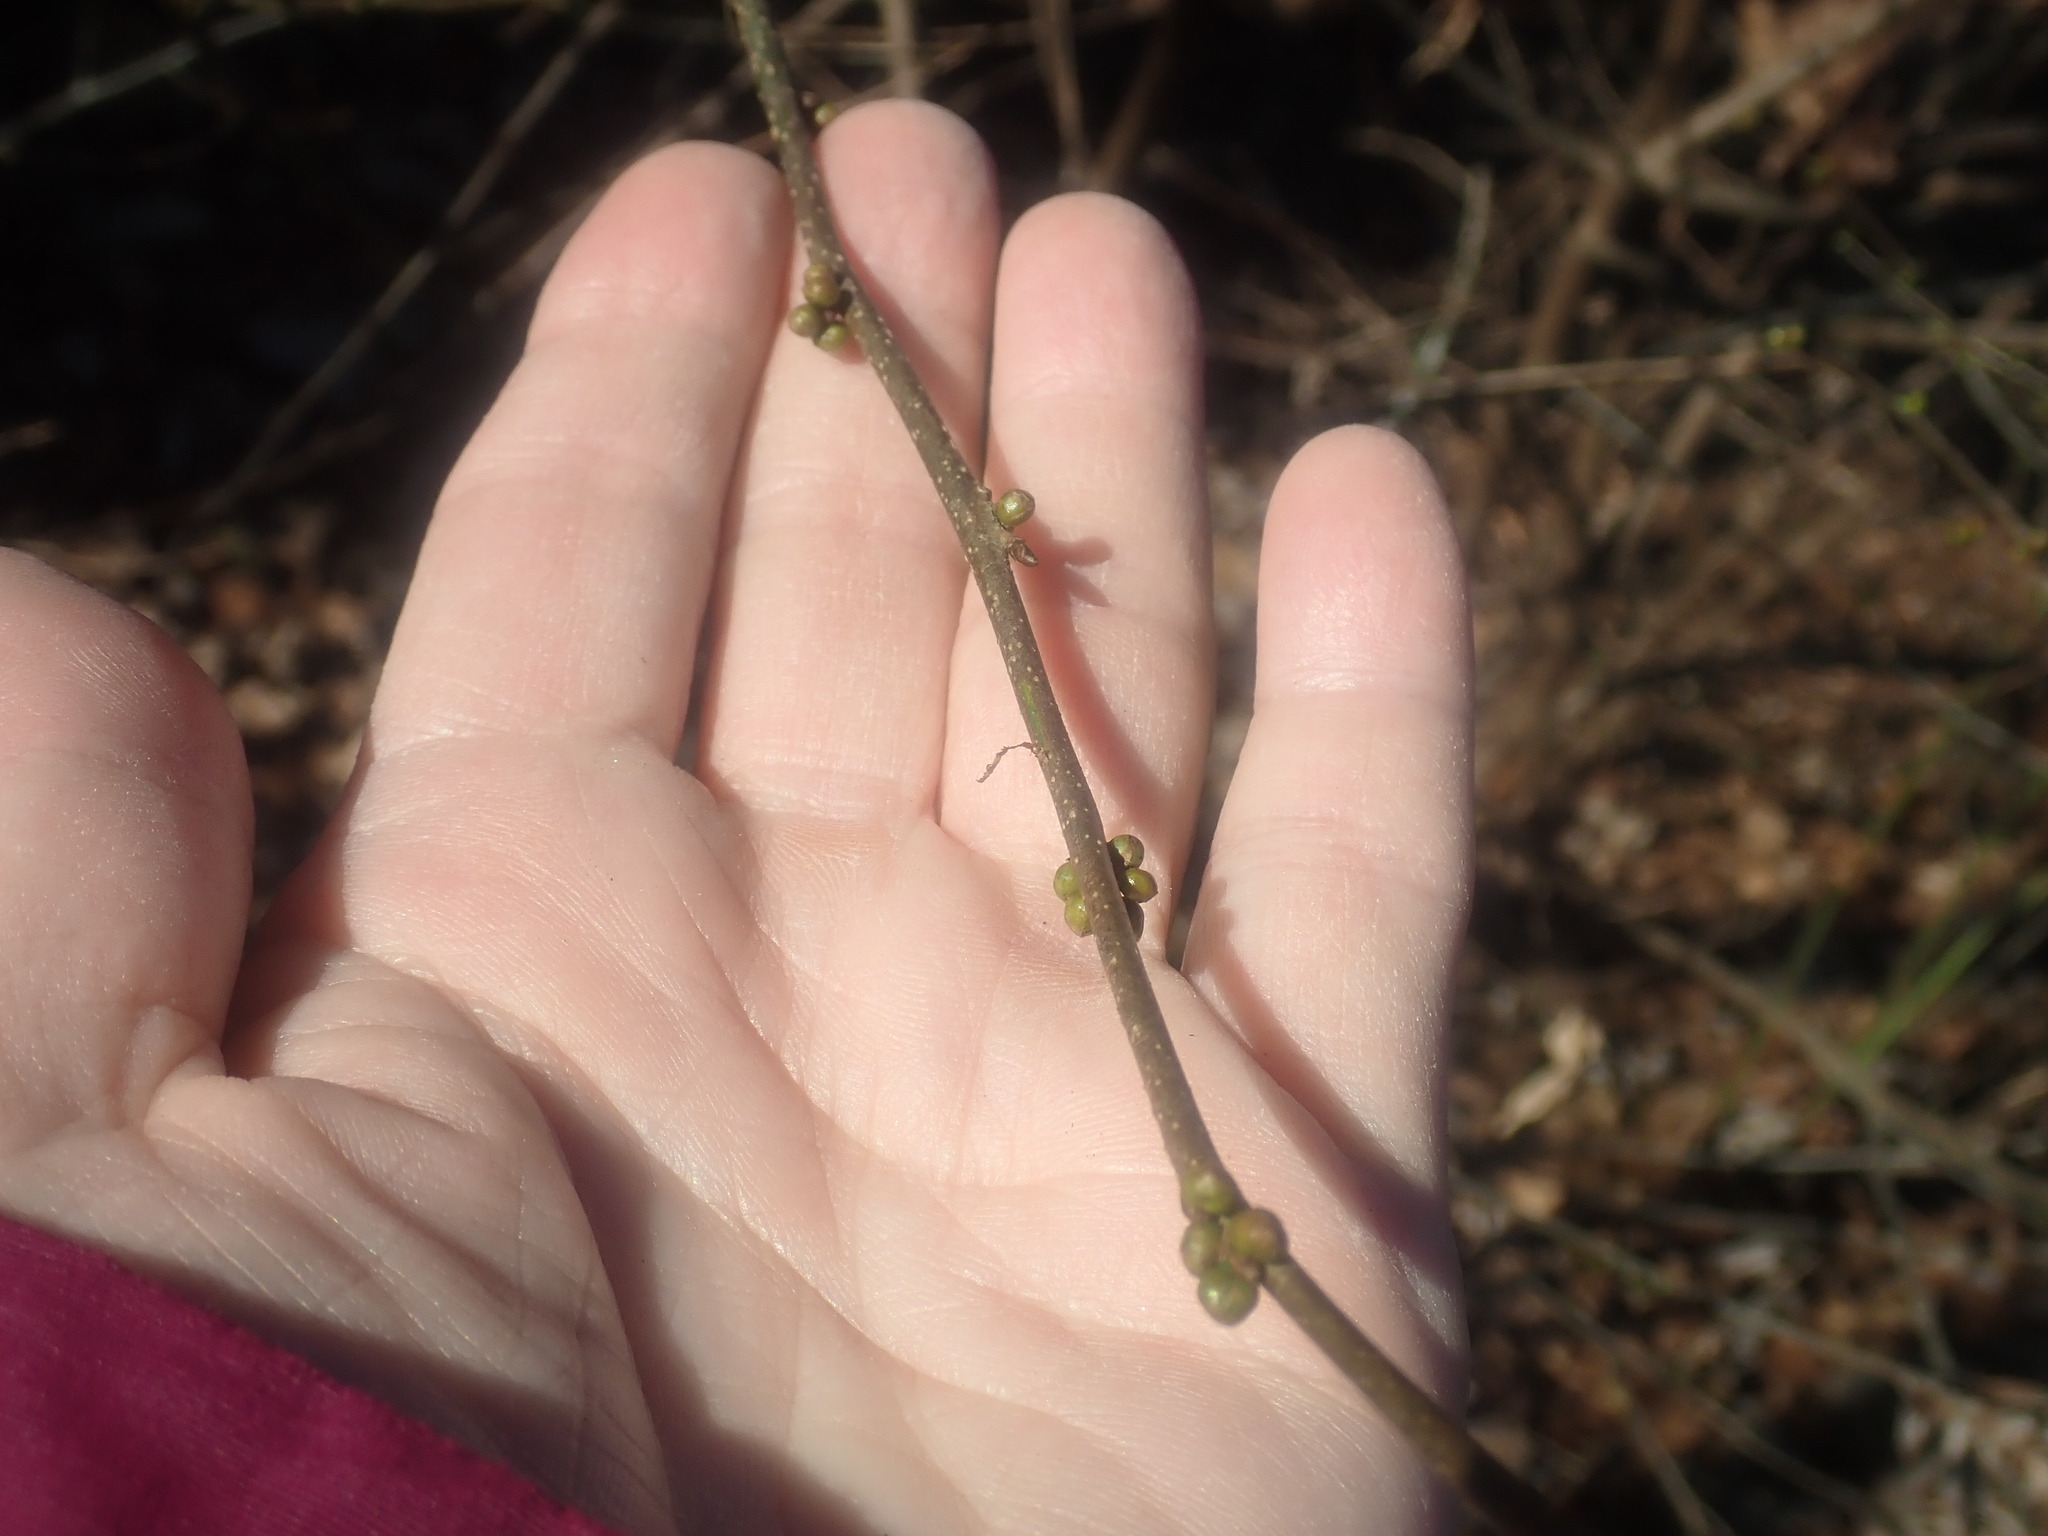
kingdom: Plantae
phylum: Tracheophyta
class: Magnoliopsida
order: Laurales
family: Lauraceae
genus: Lindera
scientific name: Lindera benzoin
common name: Spicebush
